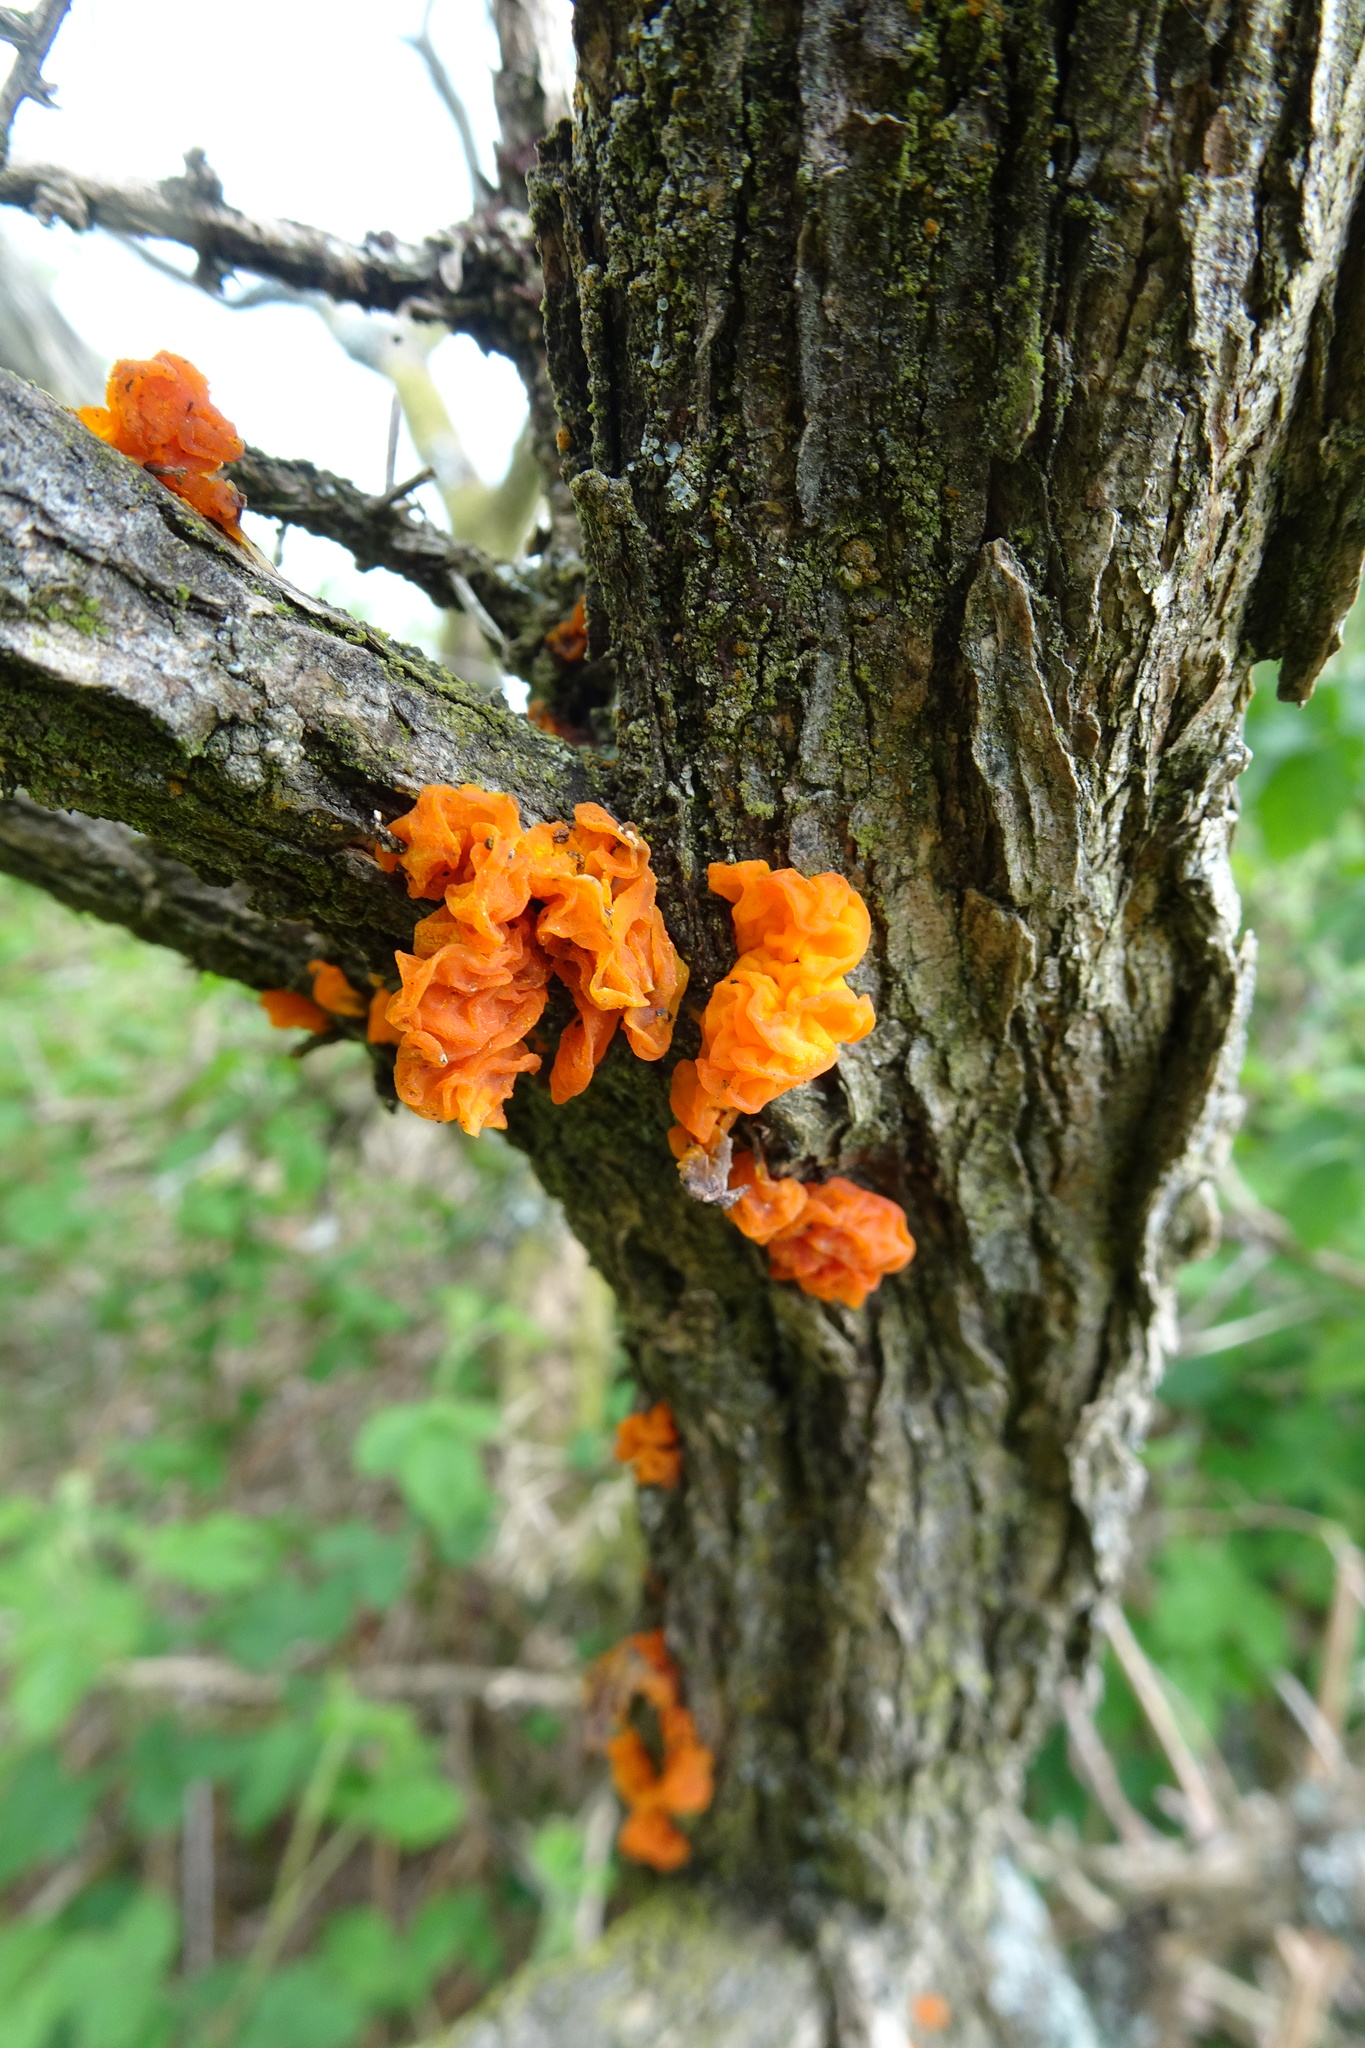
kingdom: Fungi
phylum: Basidiomycota
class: Tremellomycetes
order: Tremellales
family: Tremellaceae
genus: Tremella
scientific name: Tremella mesenterica
